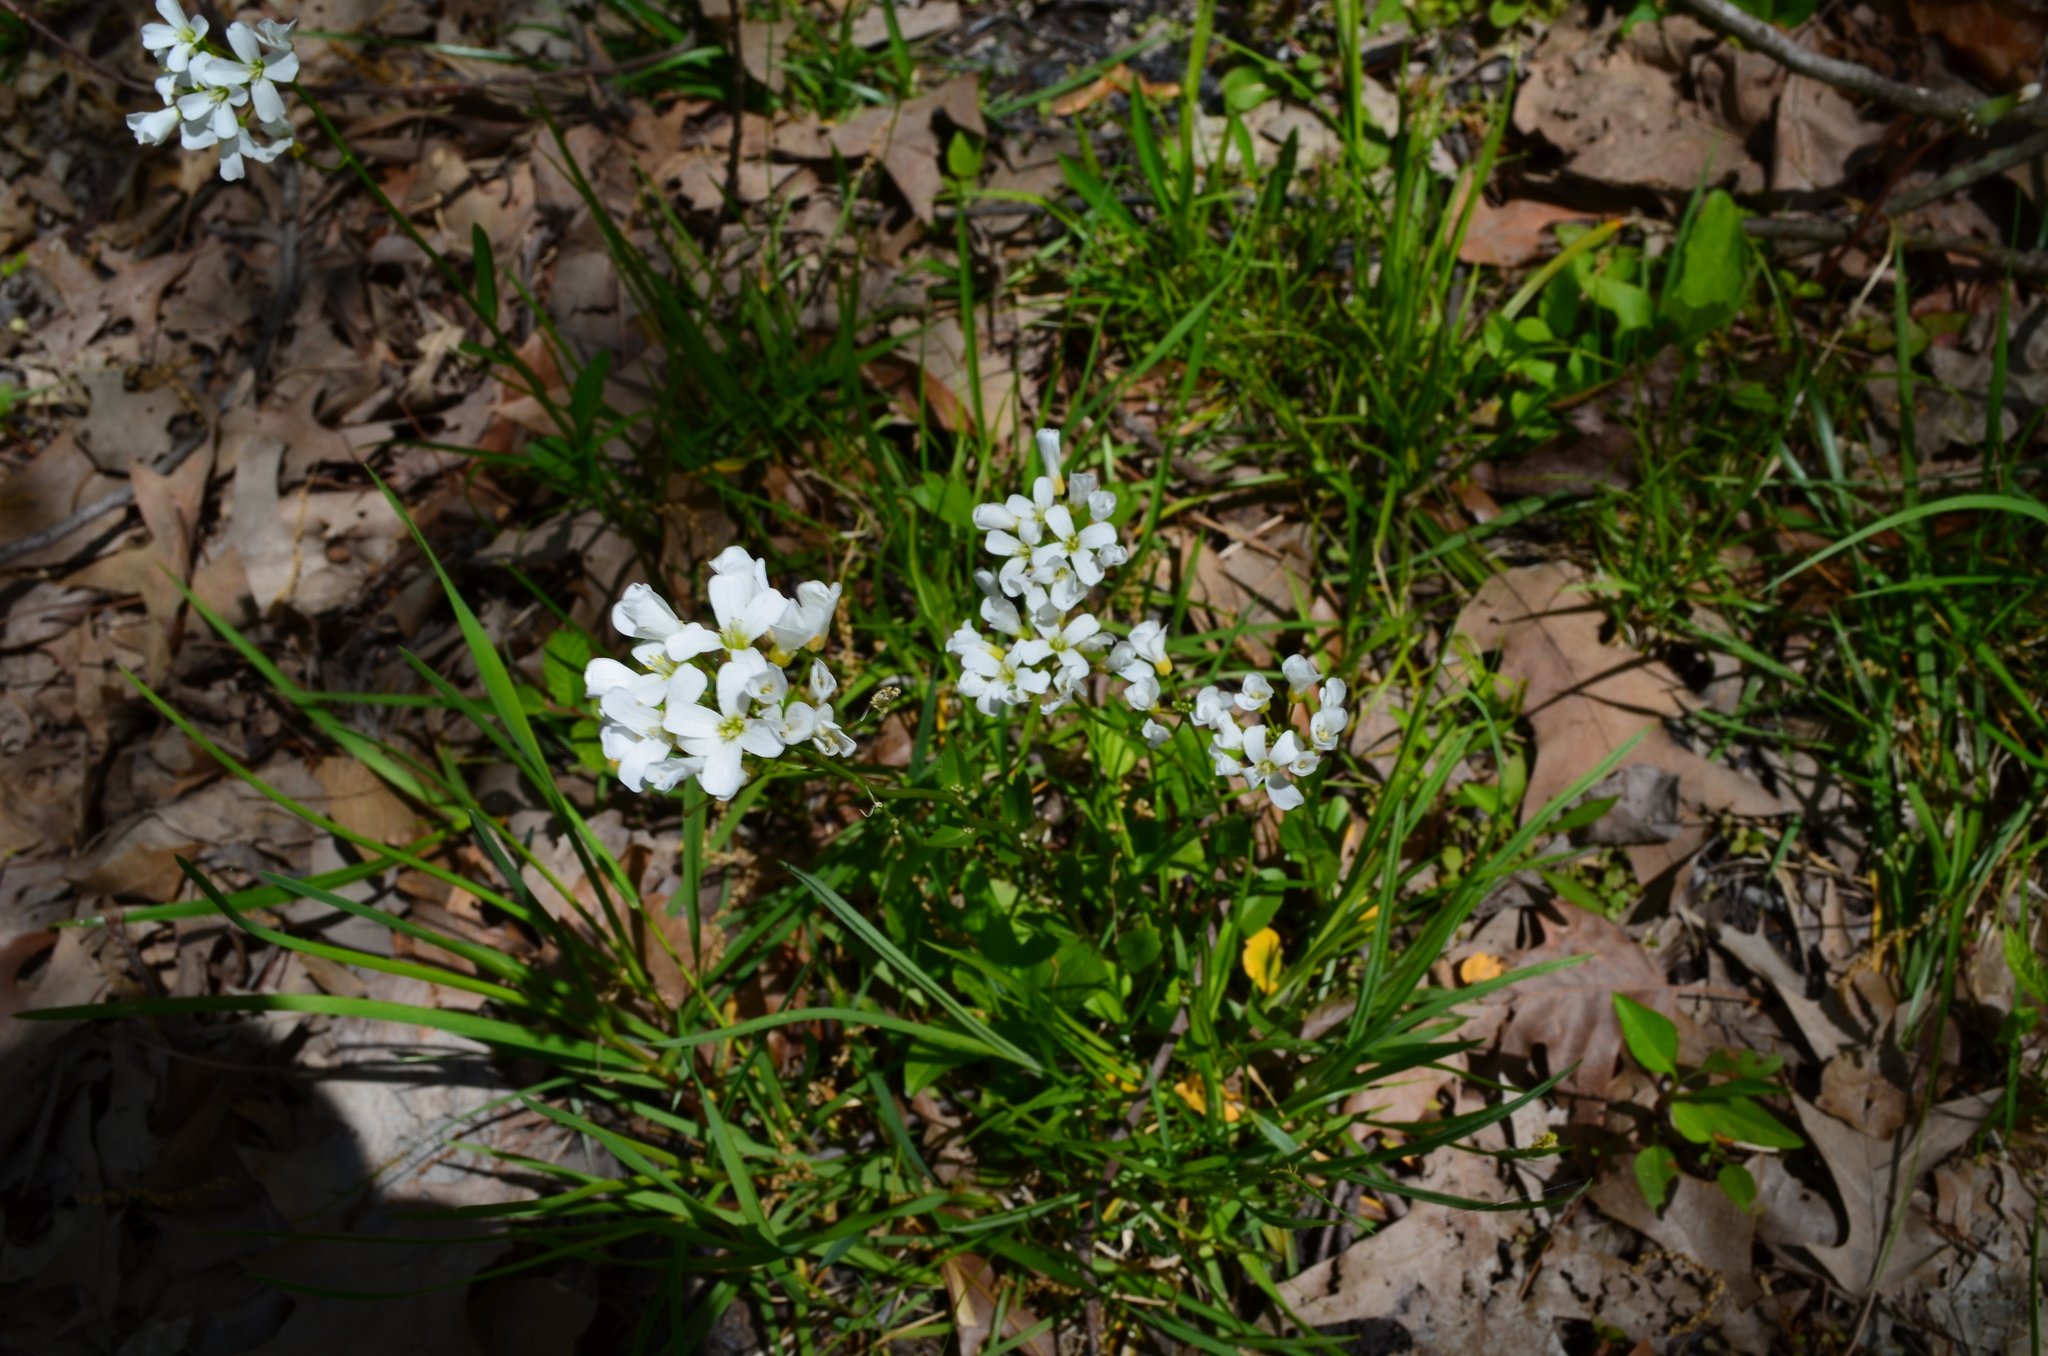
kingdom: Plantae
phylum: Tracheophyta
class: Magnoliopsida
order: Brassicales
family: Brassicaceae
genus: Cardamine
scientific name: Cardamine bulbosa
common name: Spring cress
